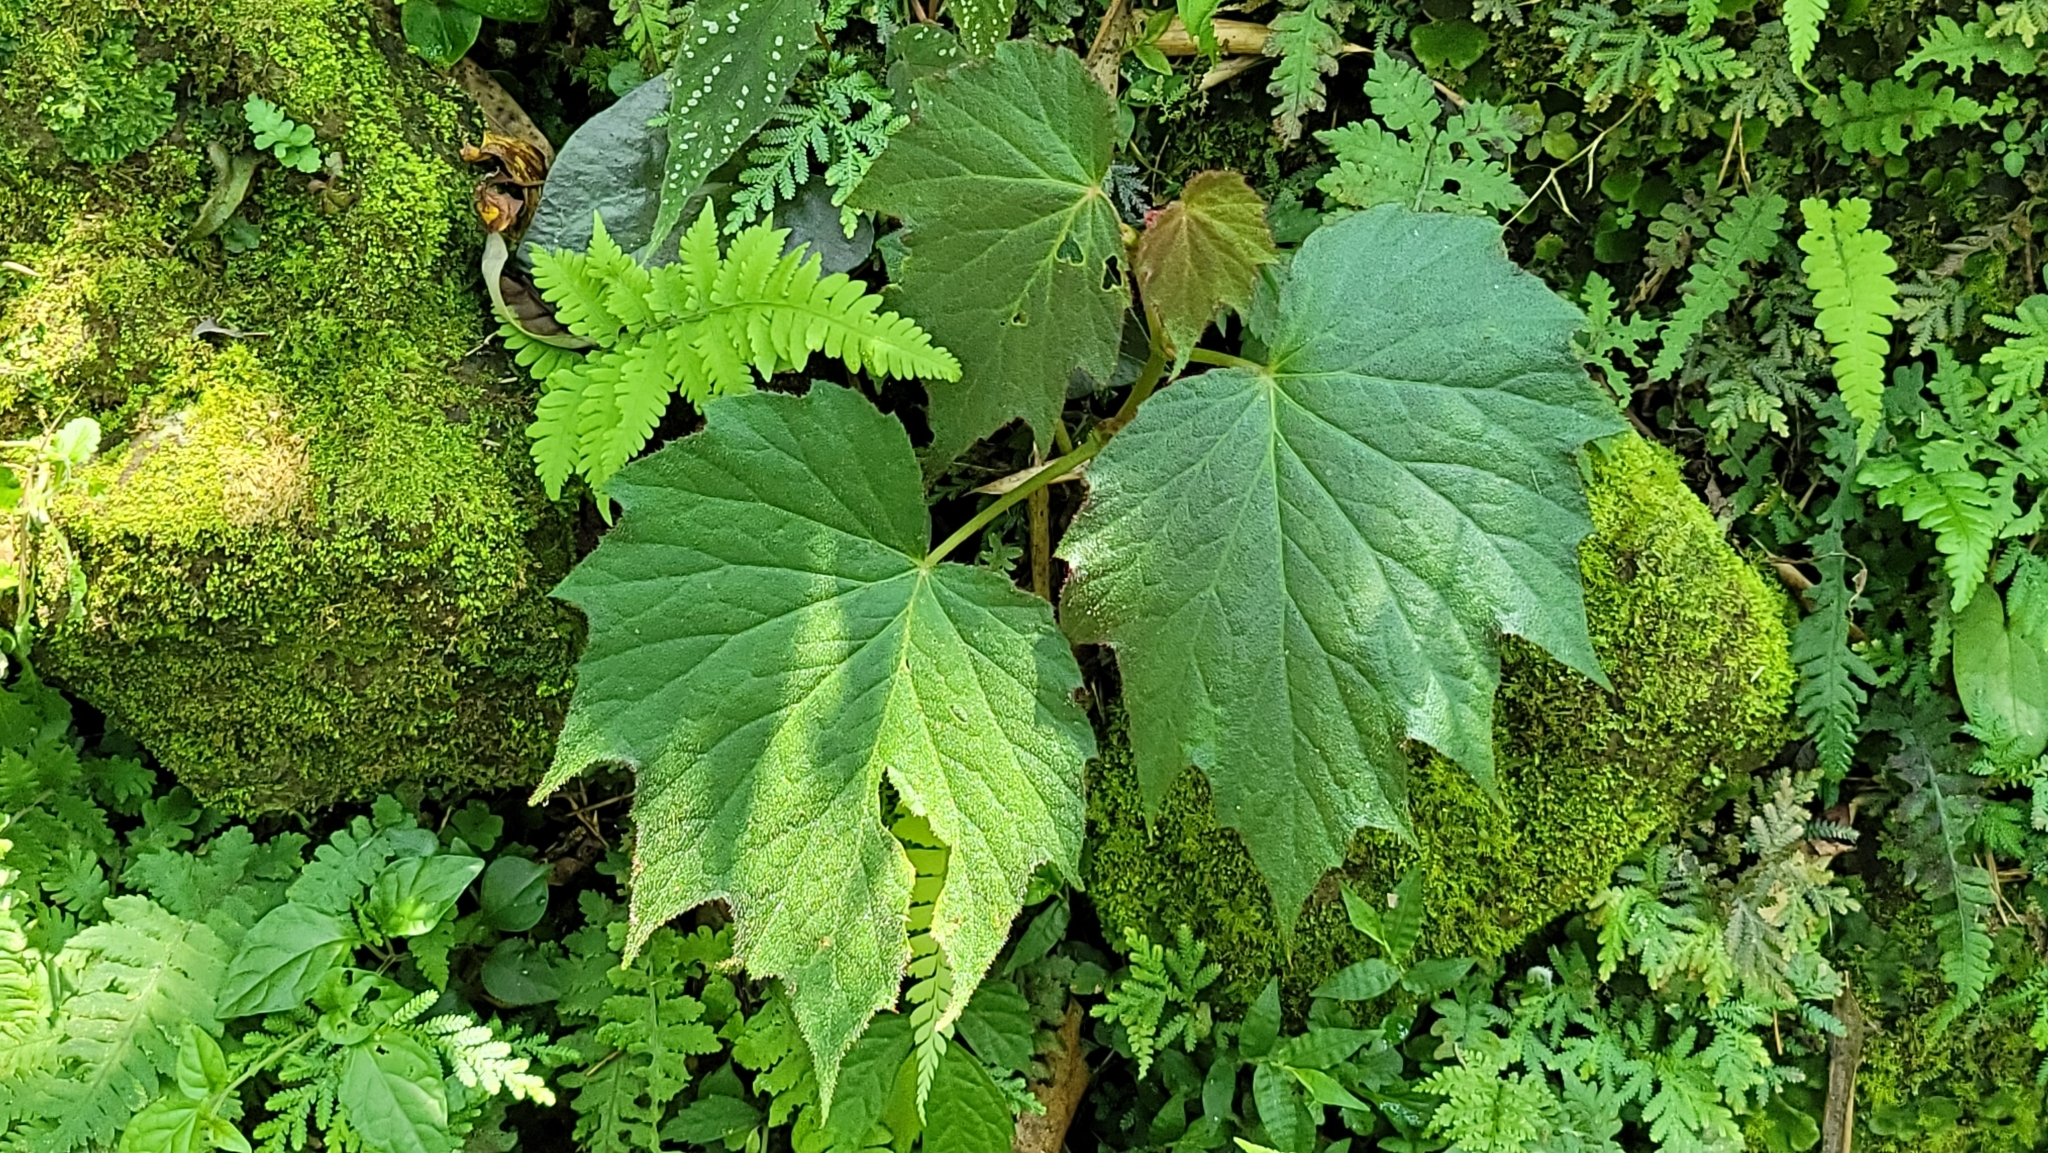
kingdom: Plantae
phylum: Tracheophyta
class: Magnoliopsida
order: Cucurbitales
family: Begoniaceae
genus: Begonia
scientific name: Begonia palmata
